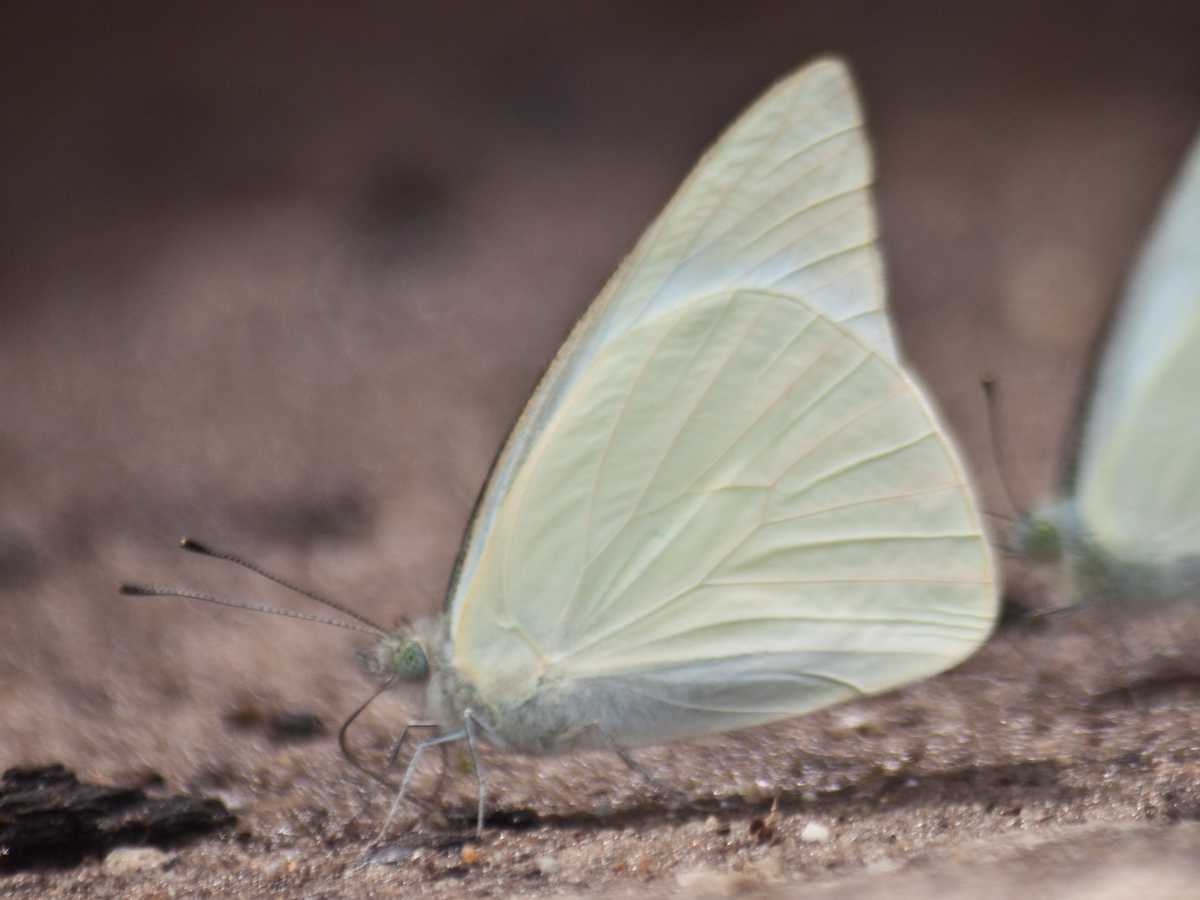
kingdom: Animalia
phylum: Arthropoda
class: Insecta
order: Lepidoptera
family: Pieridae
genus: Appias
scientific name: Appias albina
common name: Common albatross
